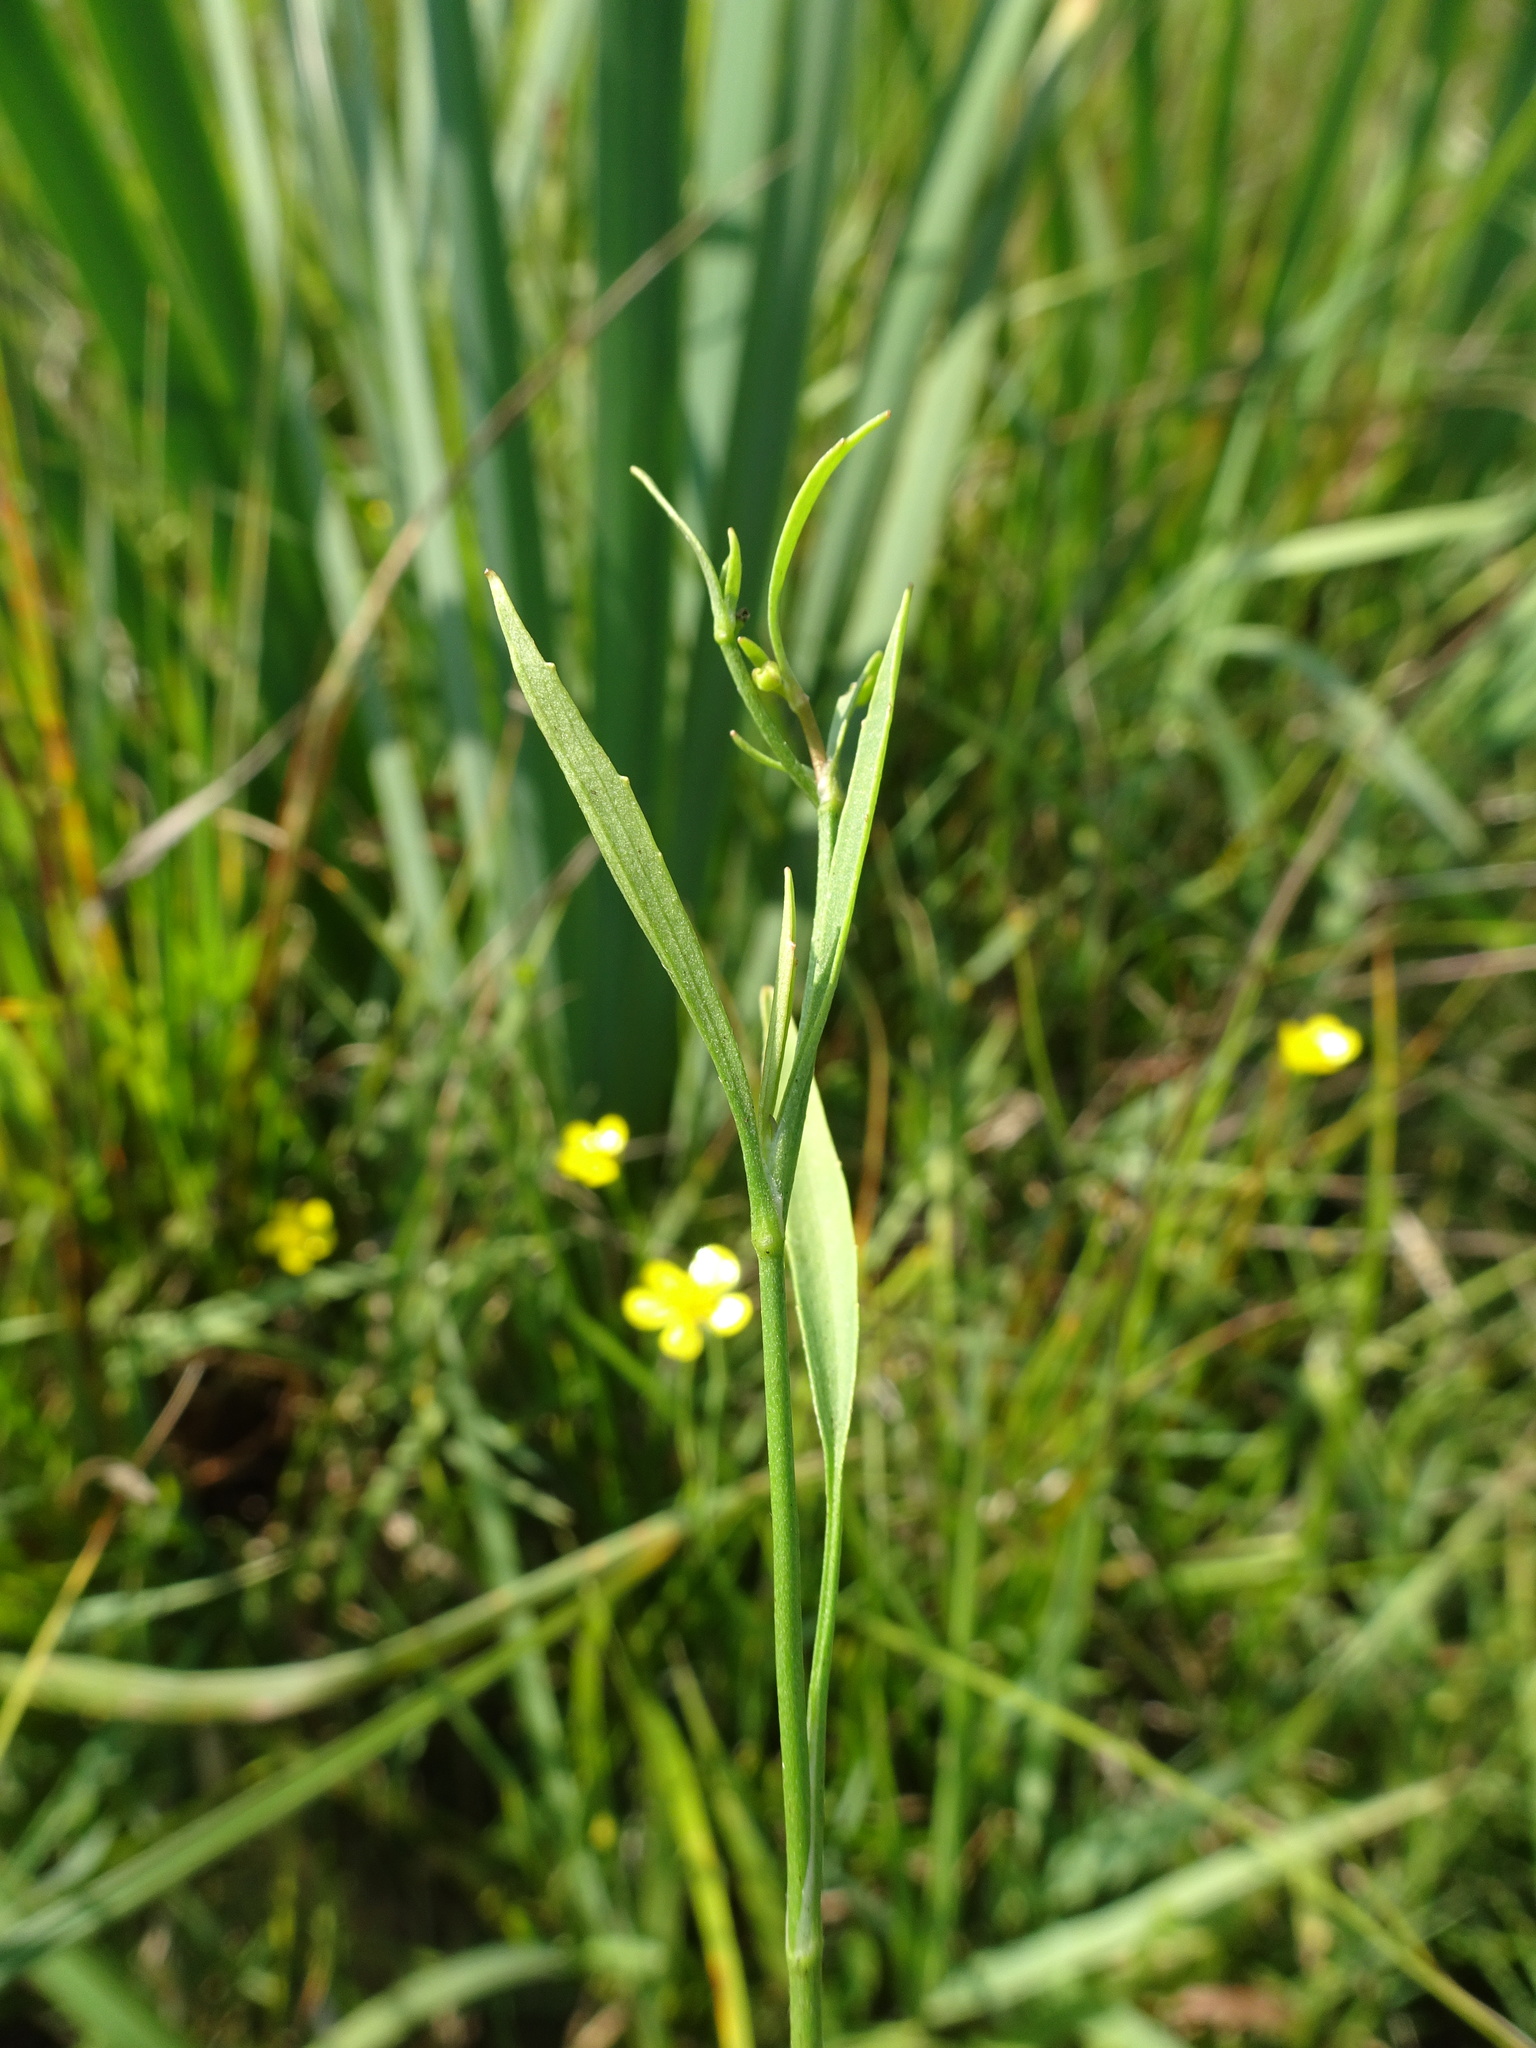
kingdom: Plantae
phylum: Tracheophyta
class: Magnoliopsida
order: Ranunculales
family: Ranunculaceae
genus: Ranunculus
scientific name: Ranunculus flammula
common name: Lesser spearwort
